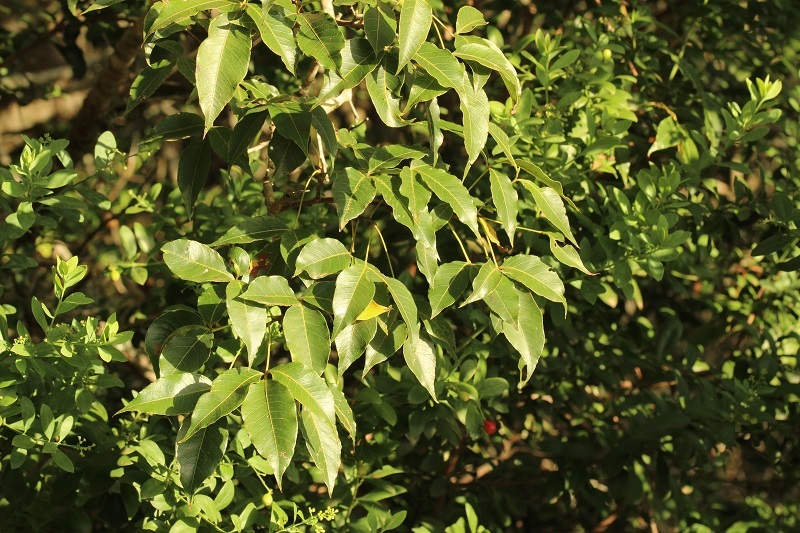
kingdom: Plantae
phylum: Tracheophyta
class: Magnoliopsida
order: Sapindales
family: Anacardiaceae
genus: Searsia
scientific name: Searsia chirindensis
